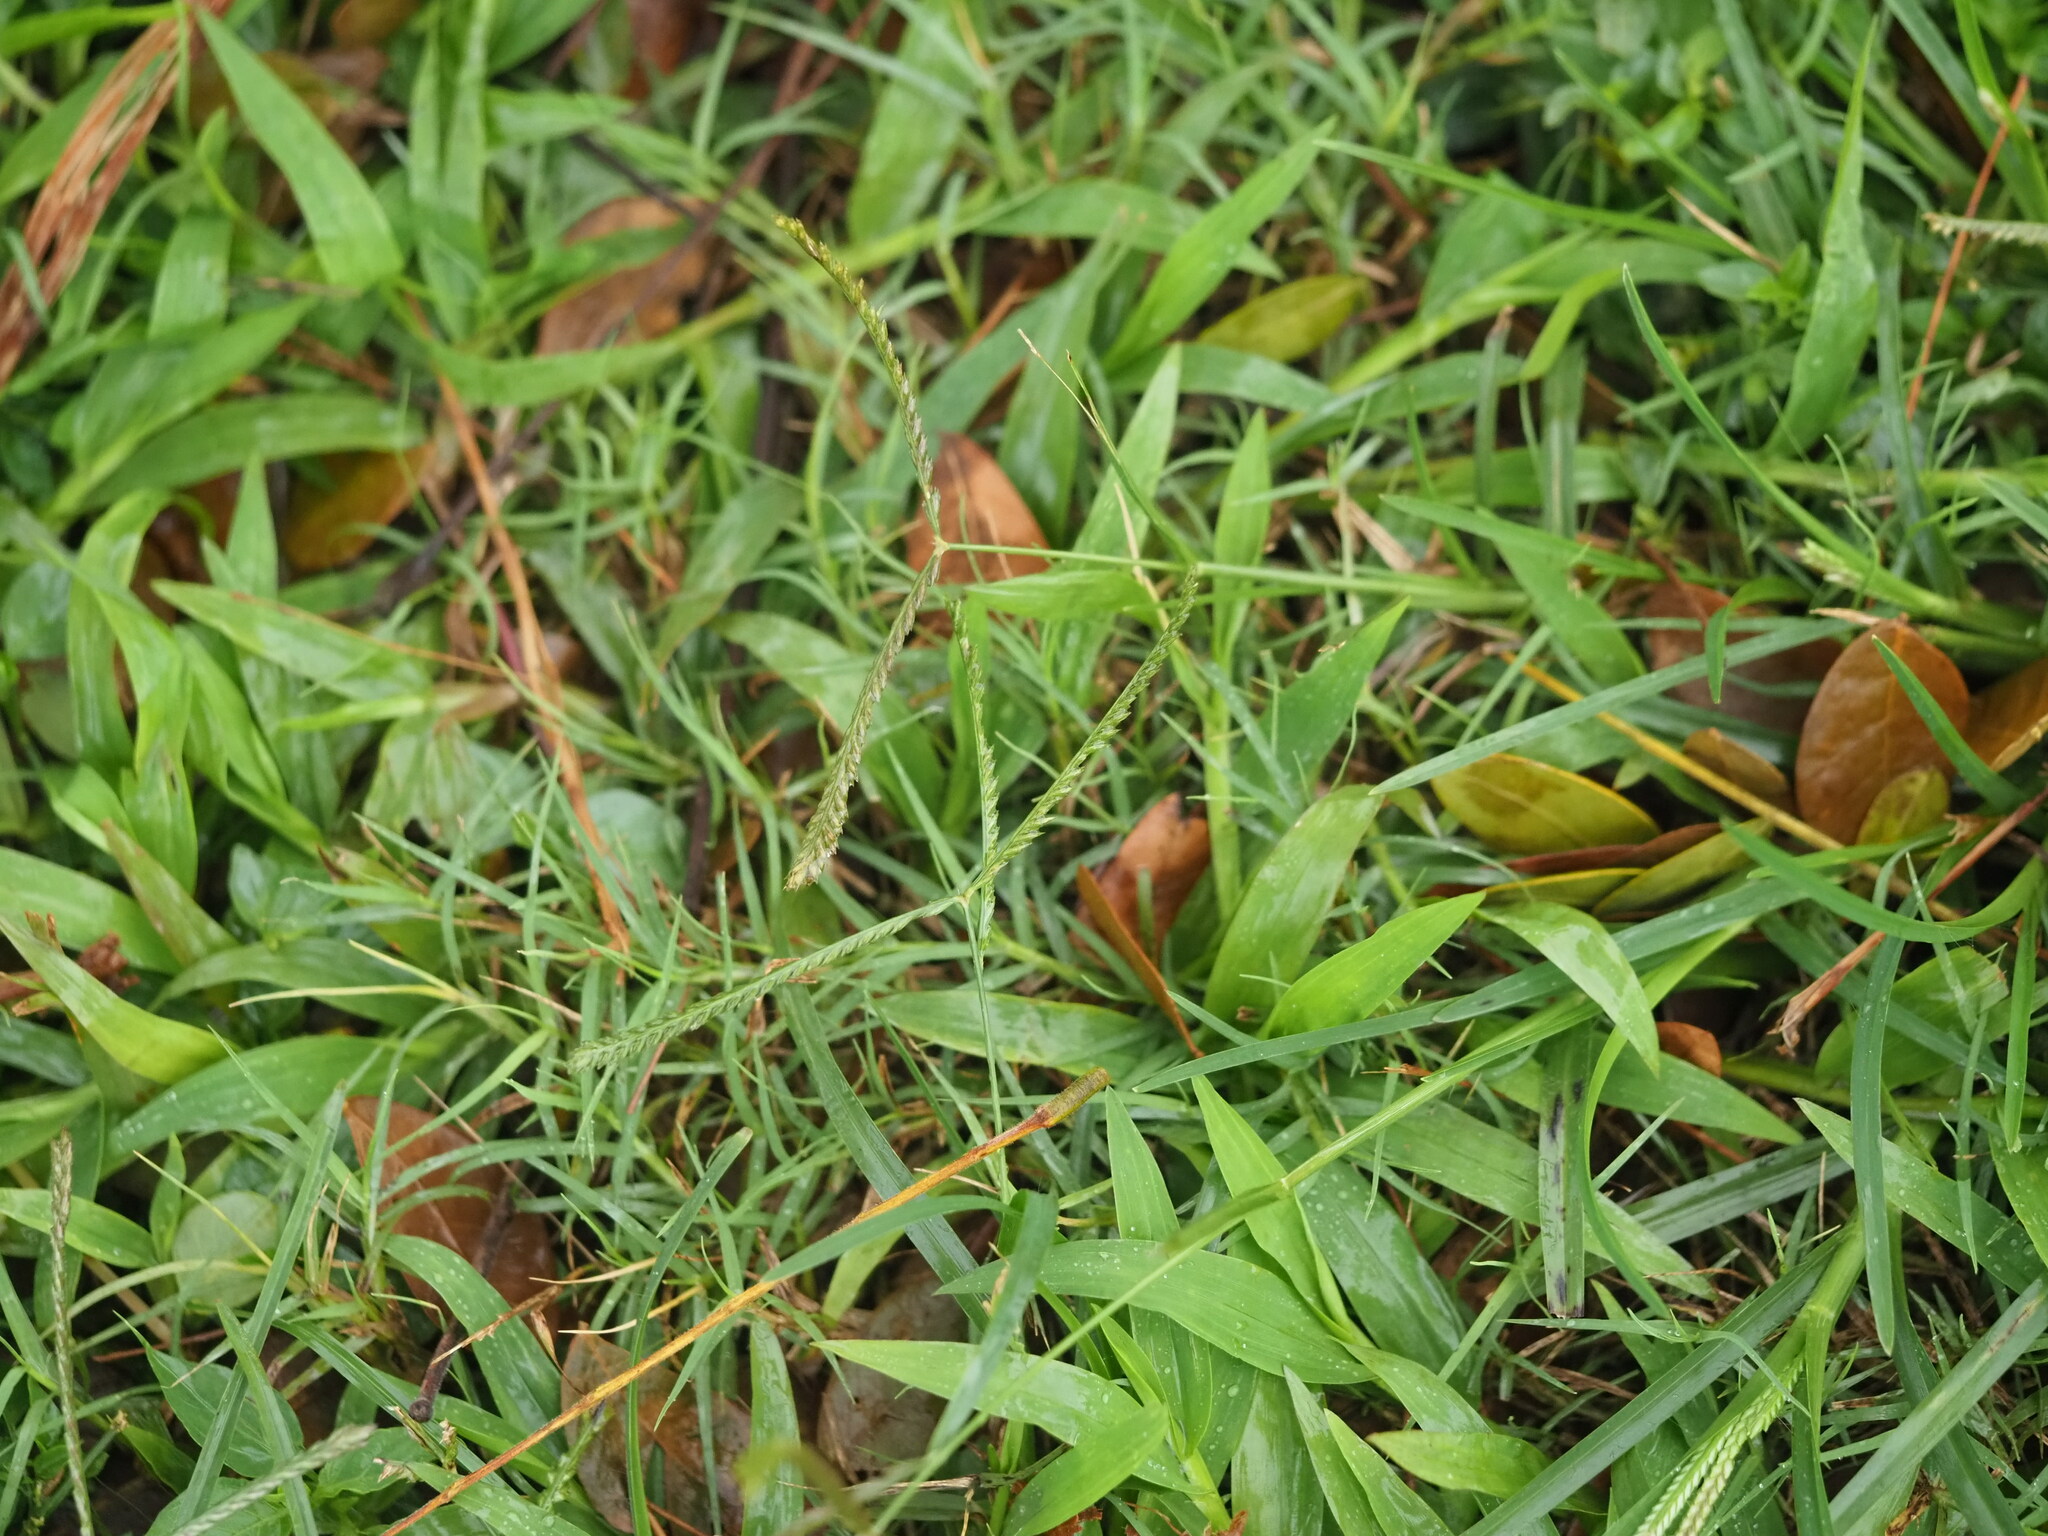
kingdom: Plantae
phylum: Tracheophyta
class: Liliopsida
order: Poales
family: Poaceae
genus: Eleusine
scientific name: Eleusine indica
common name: Yard-grass
